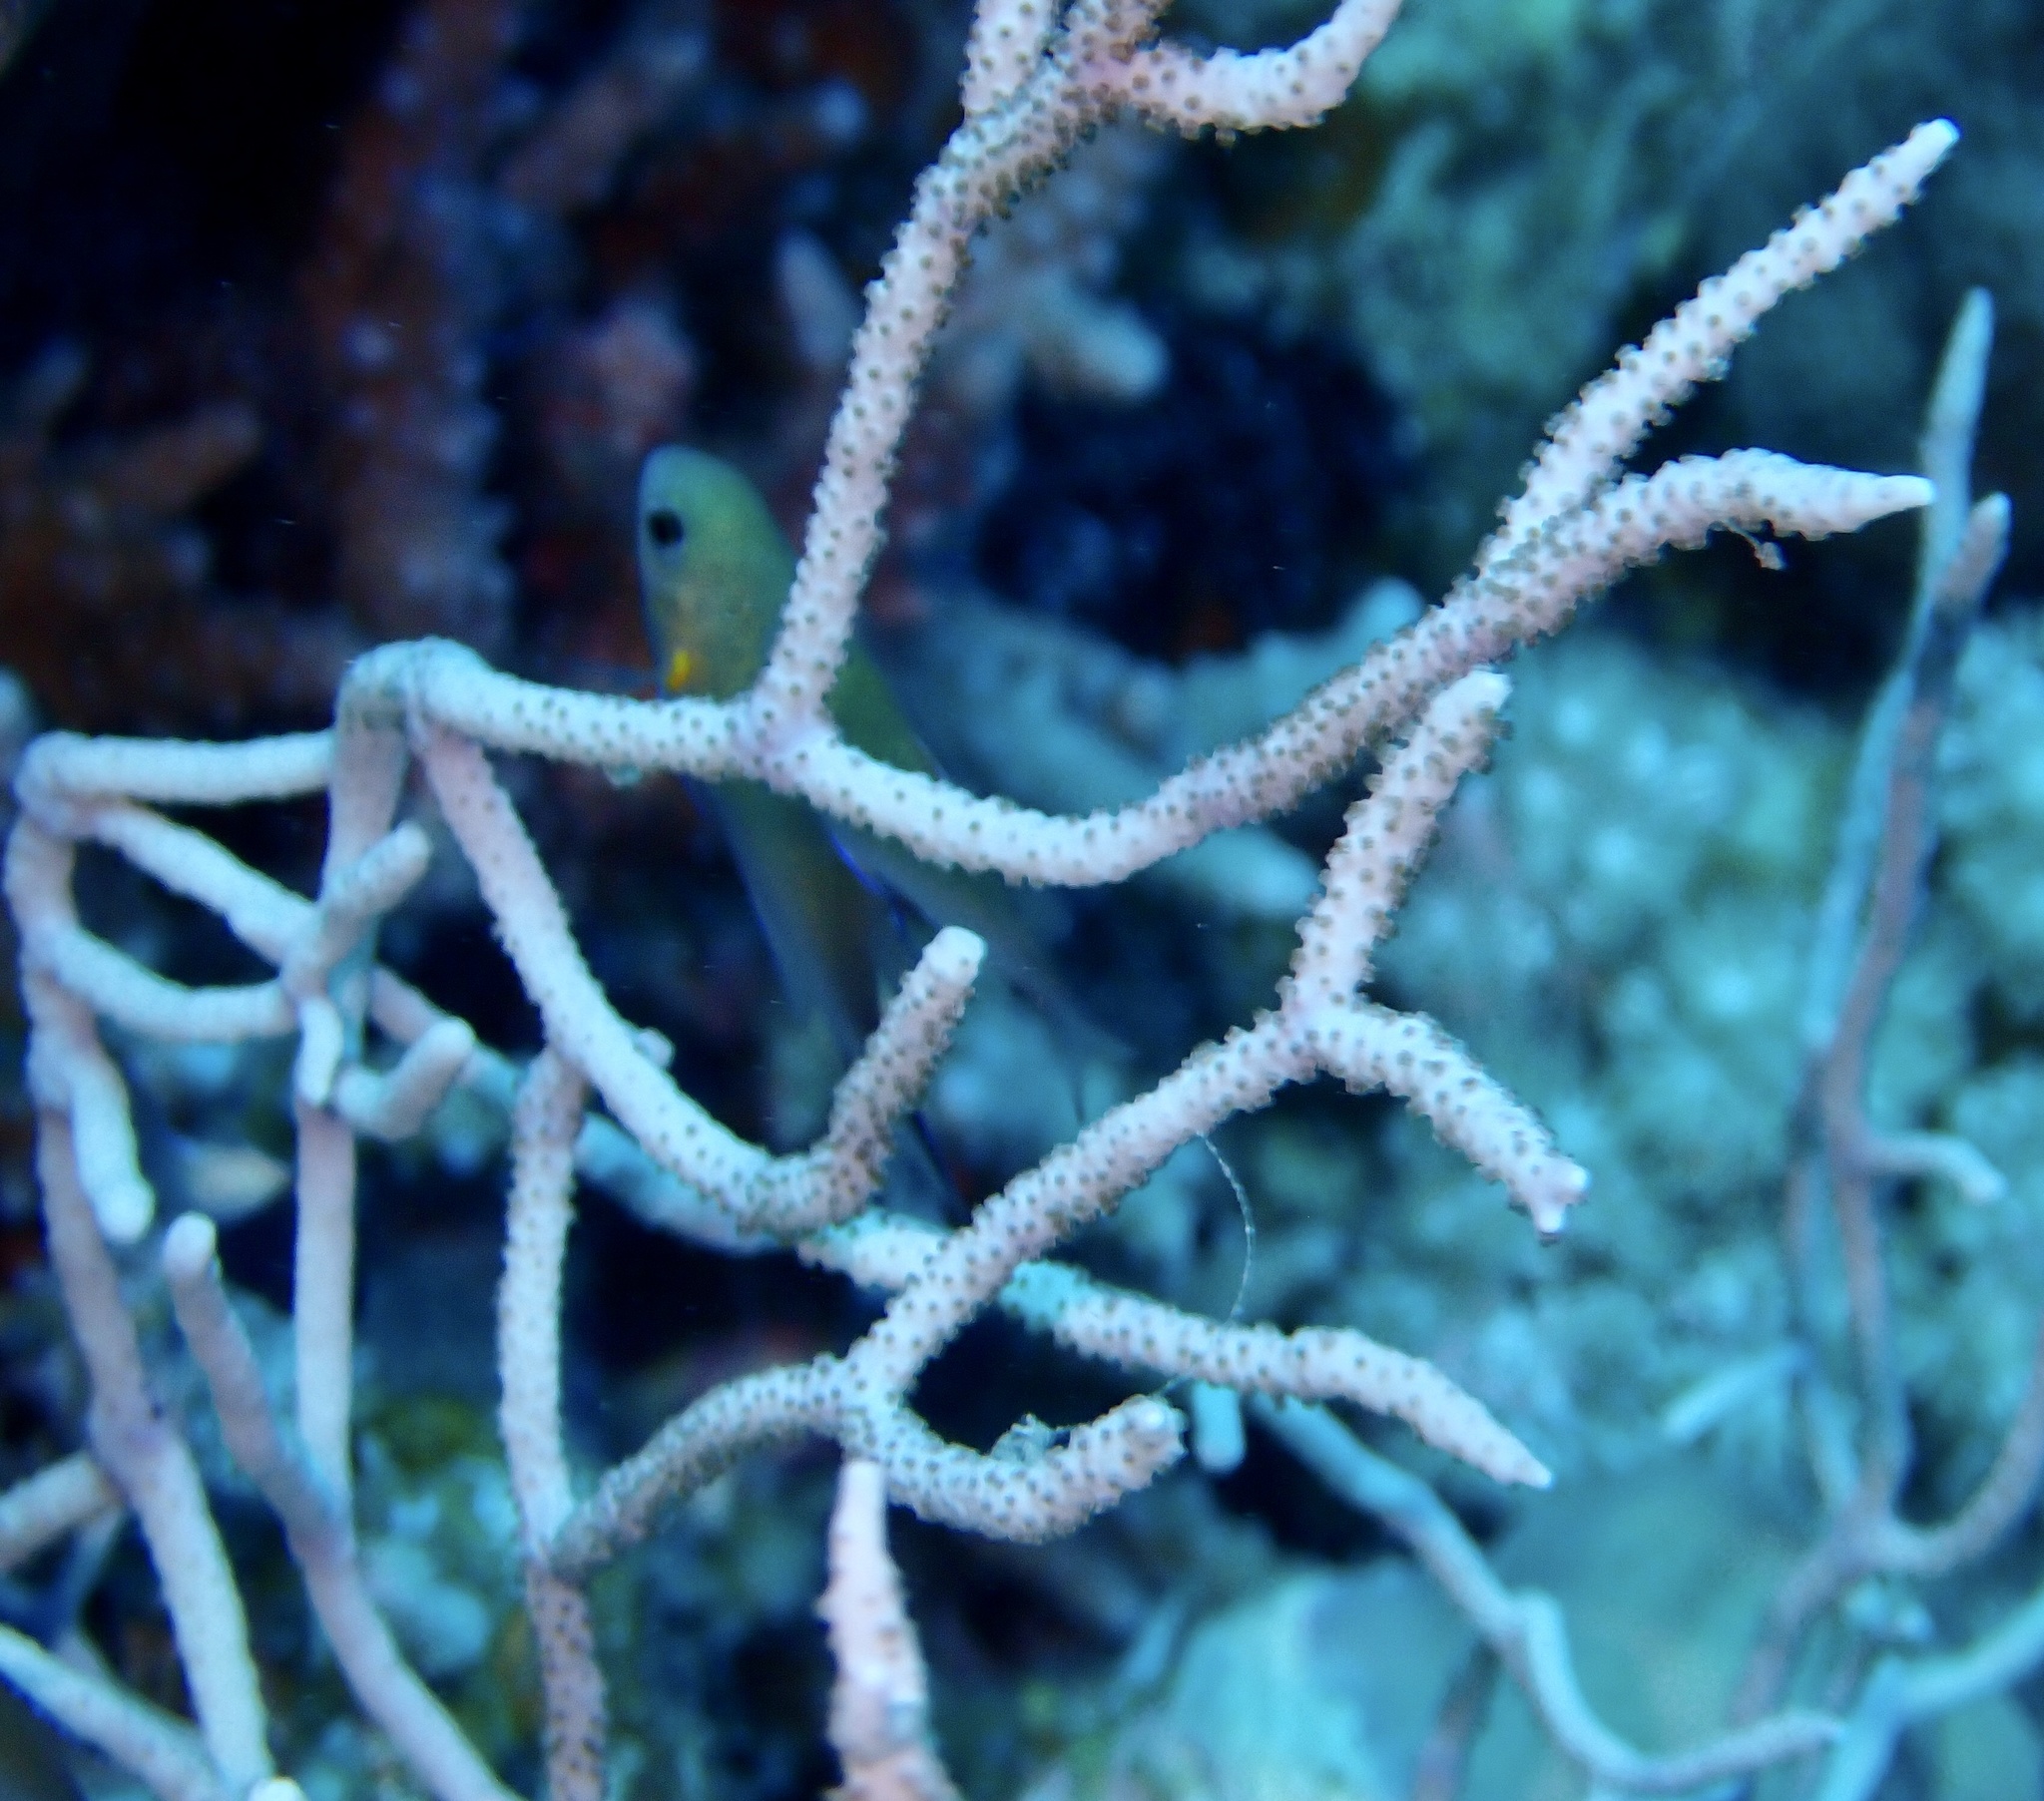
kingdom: Animalia
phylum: Cnidaria
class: Anthozoa
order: Malacalcyonacea
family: Melithaeidae
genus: Melithaea
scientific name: Melithaea rubrinodis
